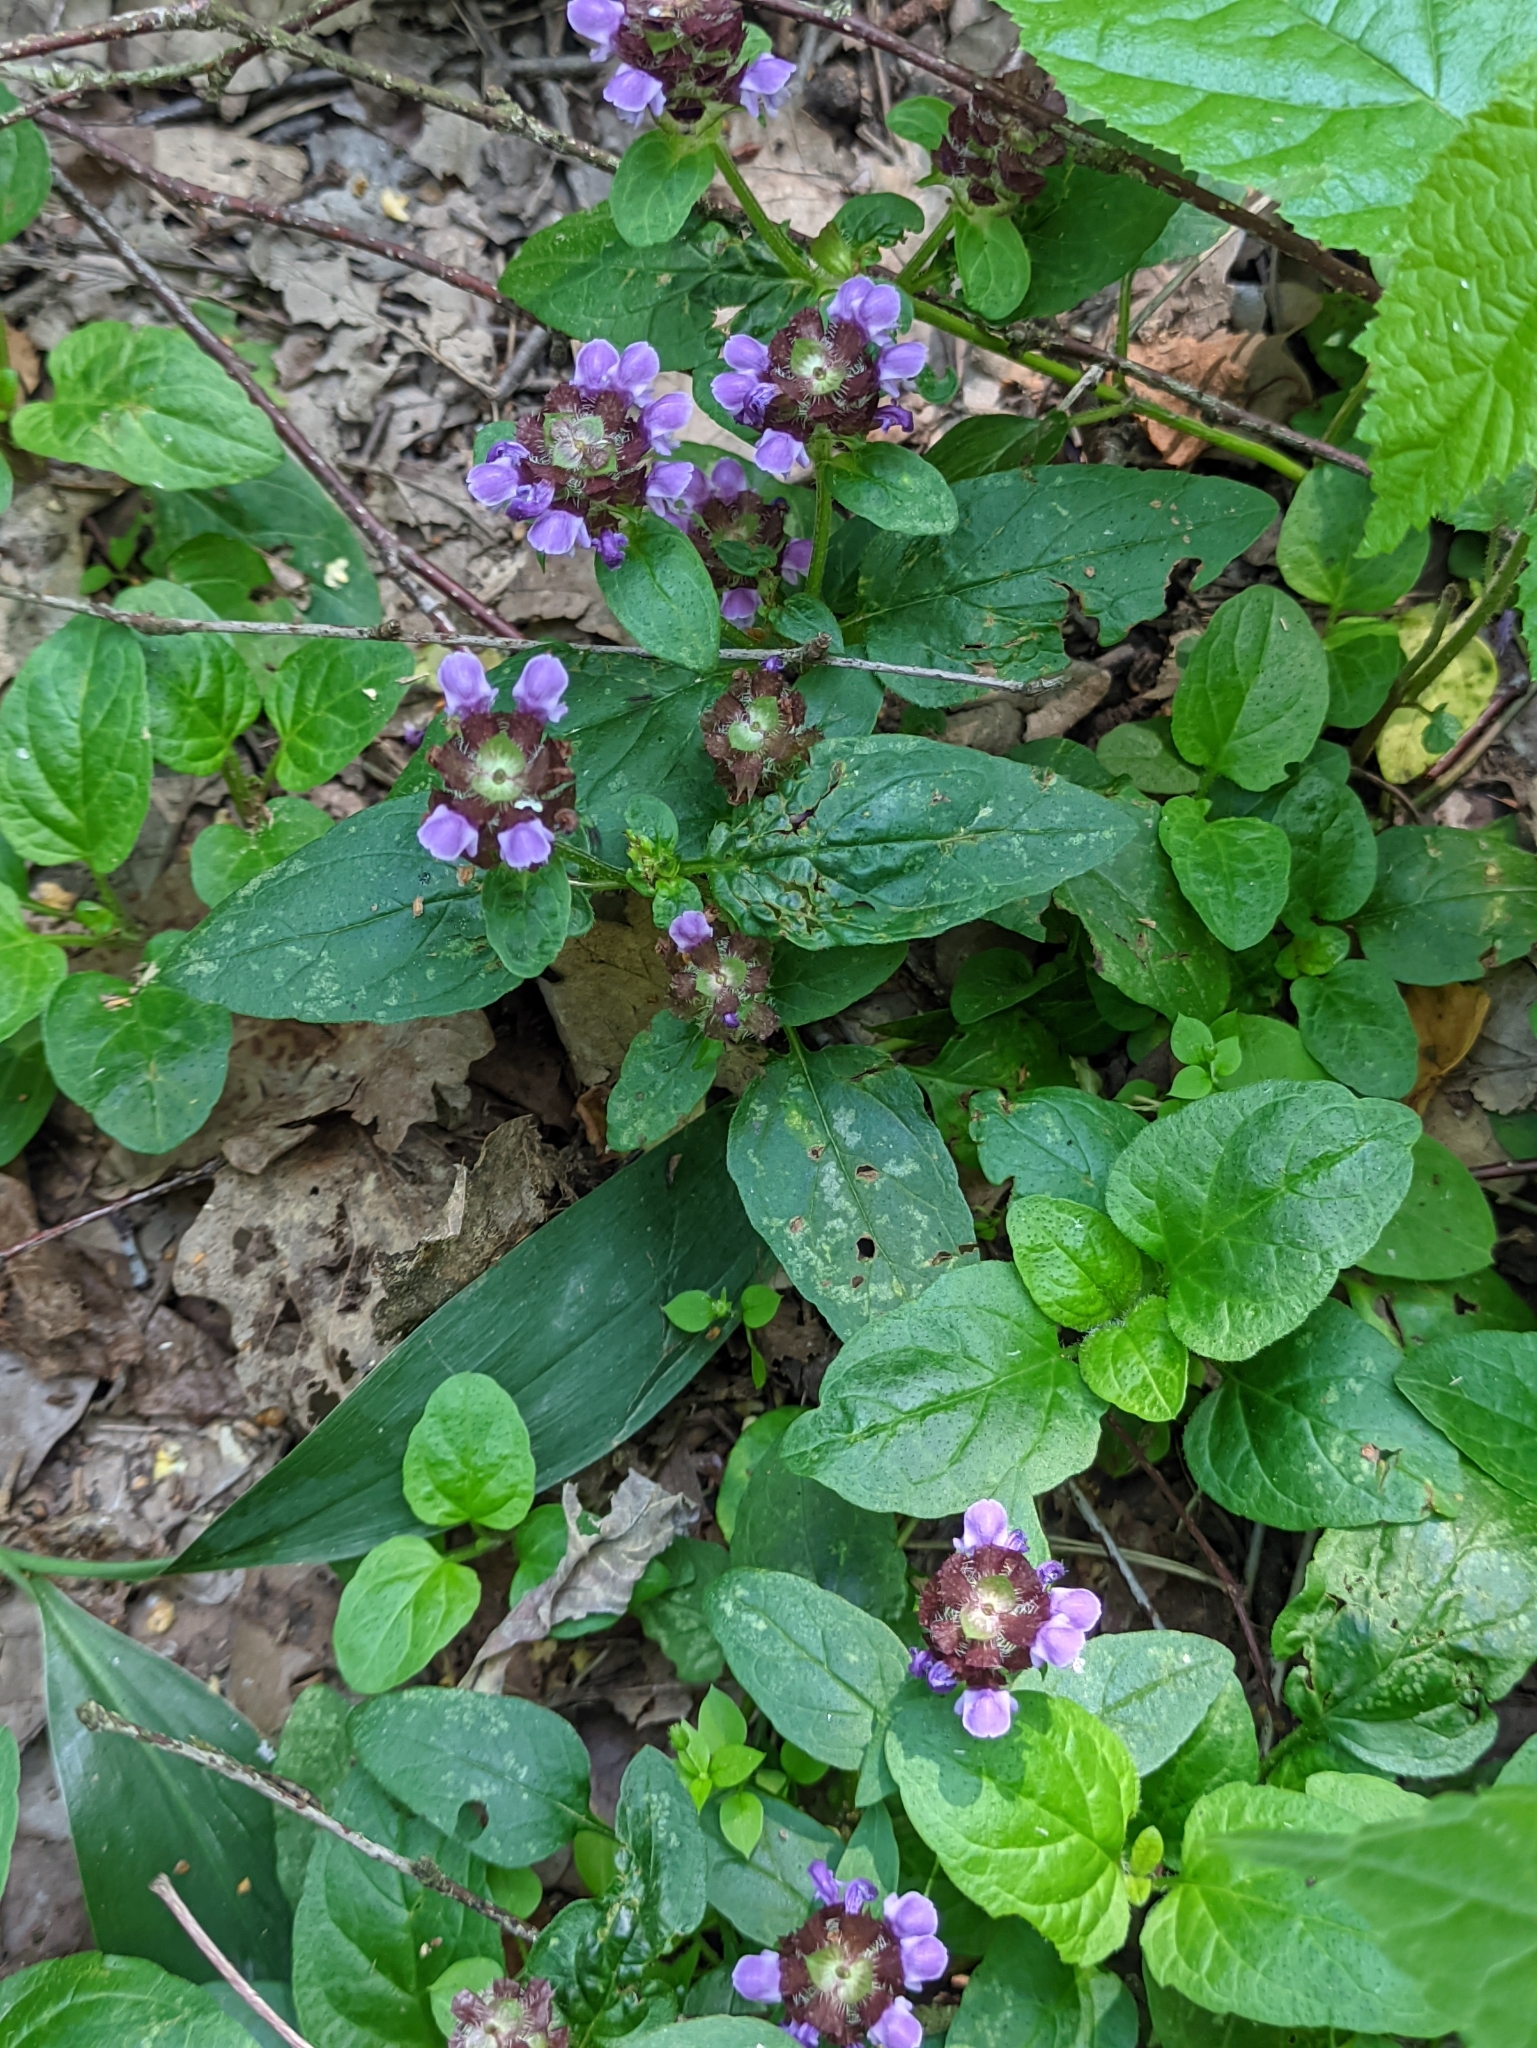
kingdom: Plantae
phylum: Tracheophyta
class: Magnoliopsida
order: Lamiales
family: Lamiaceae
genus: Prunella
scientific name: Prunella vulgaris
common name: Heal-all
